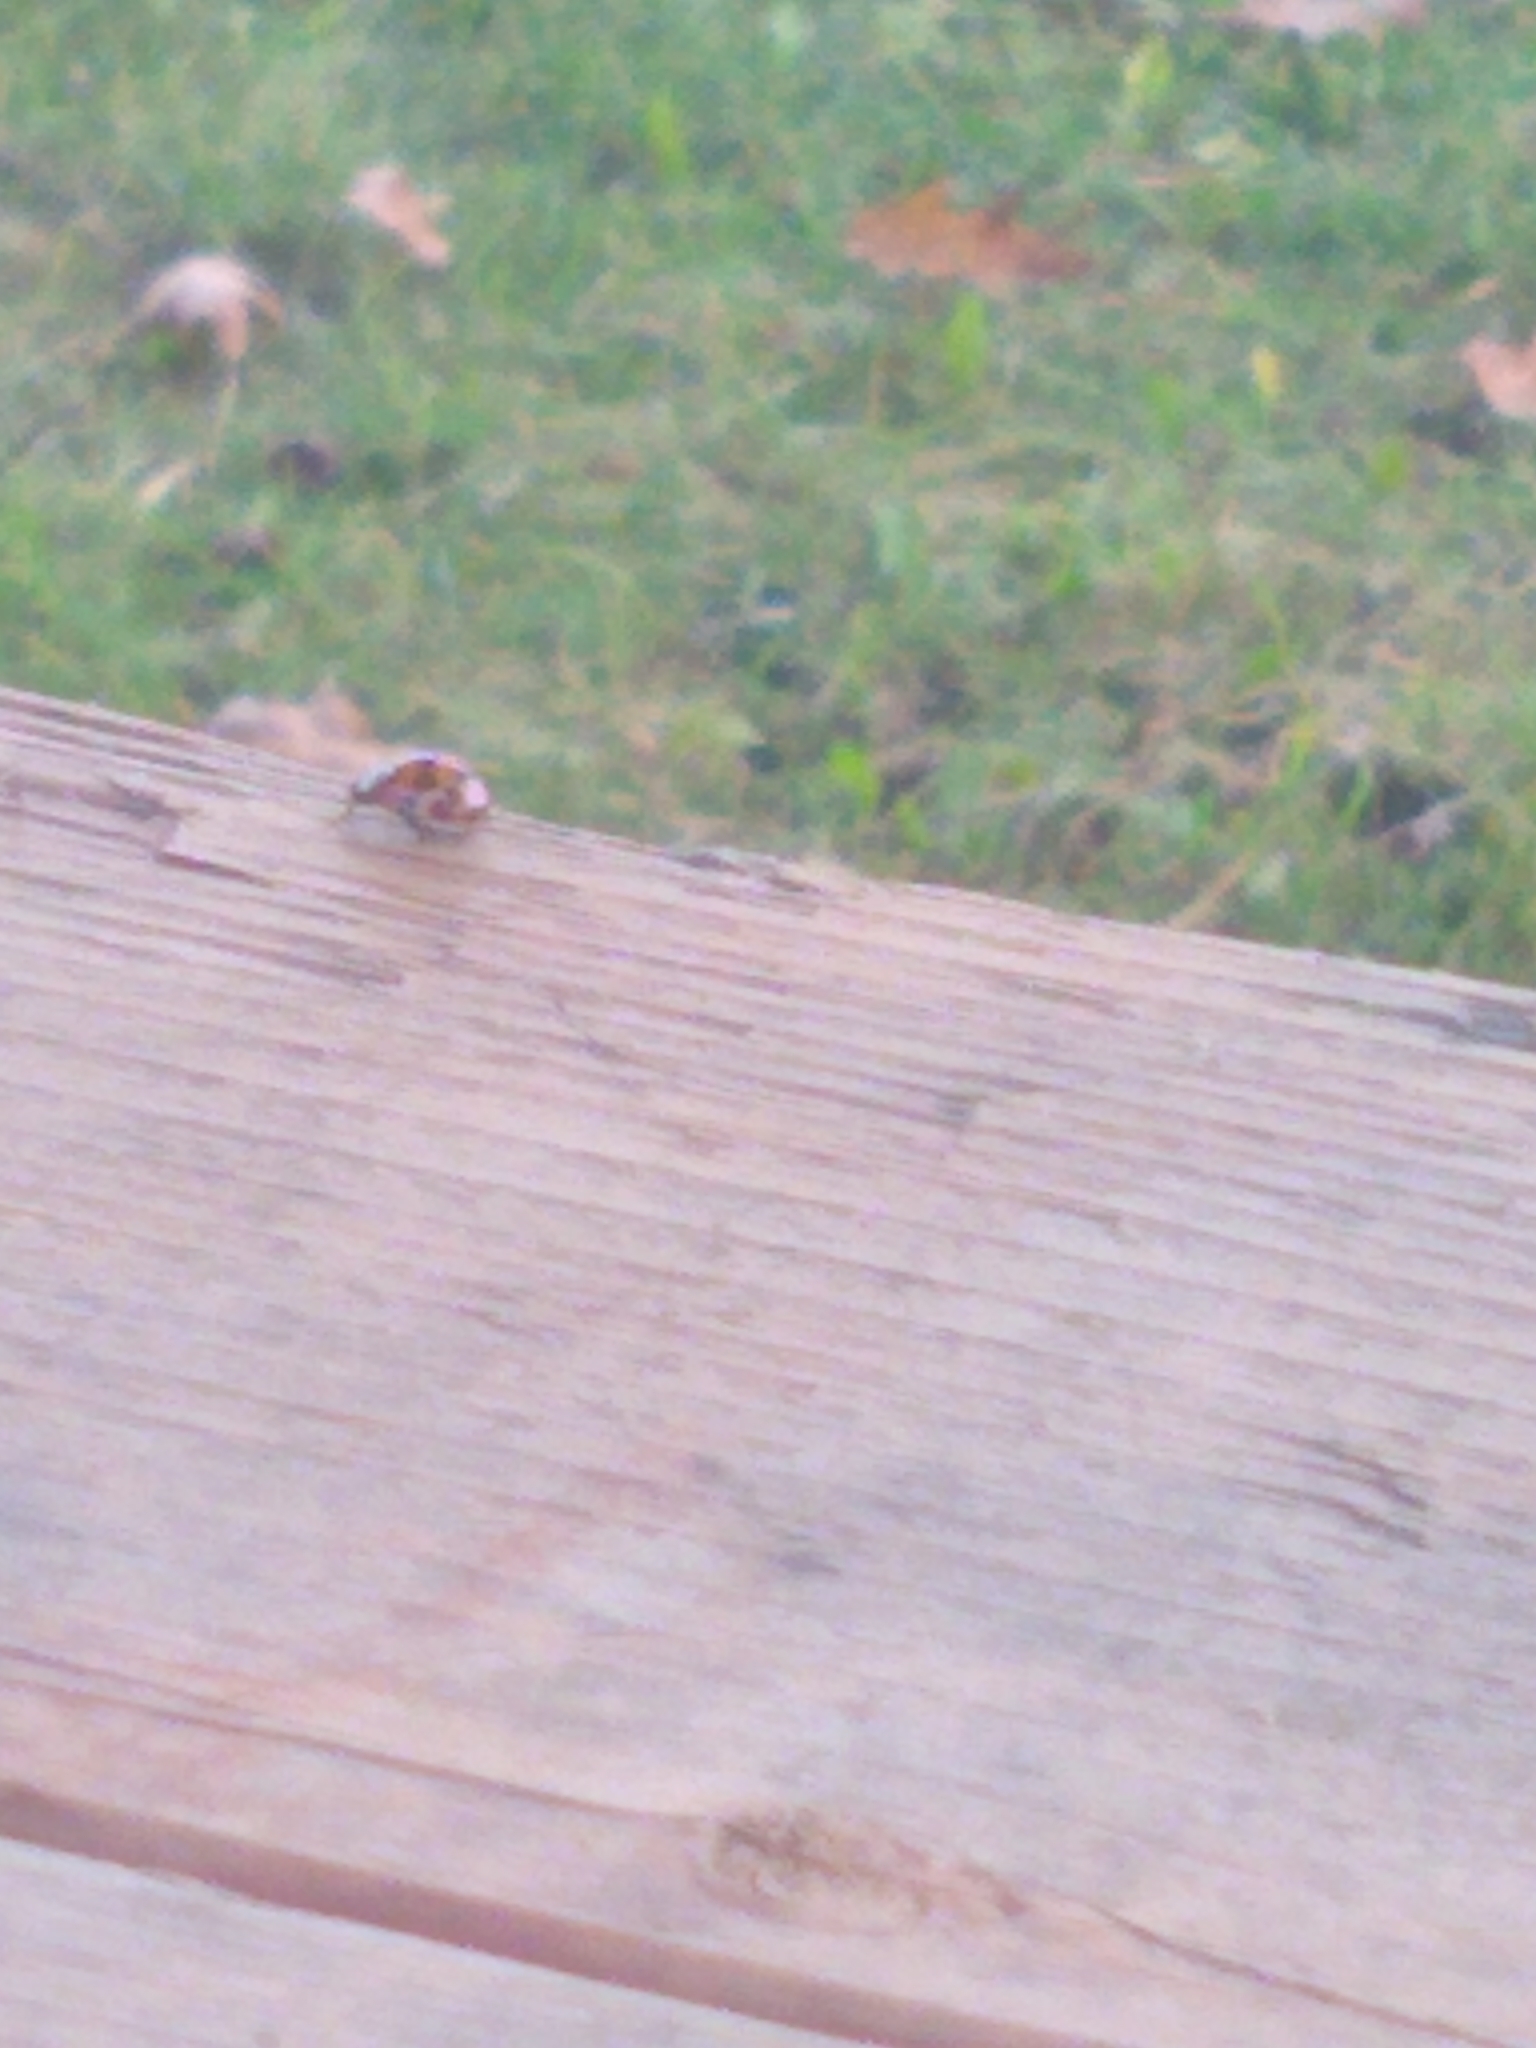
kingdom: Animalia
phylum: Arthropoda
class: Insecta
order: Coleoptera
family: Coccinellidae
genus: Harmonia
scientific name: Harmonia axyridis
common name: Harlequin ladybird
